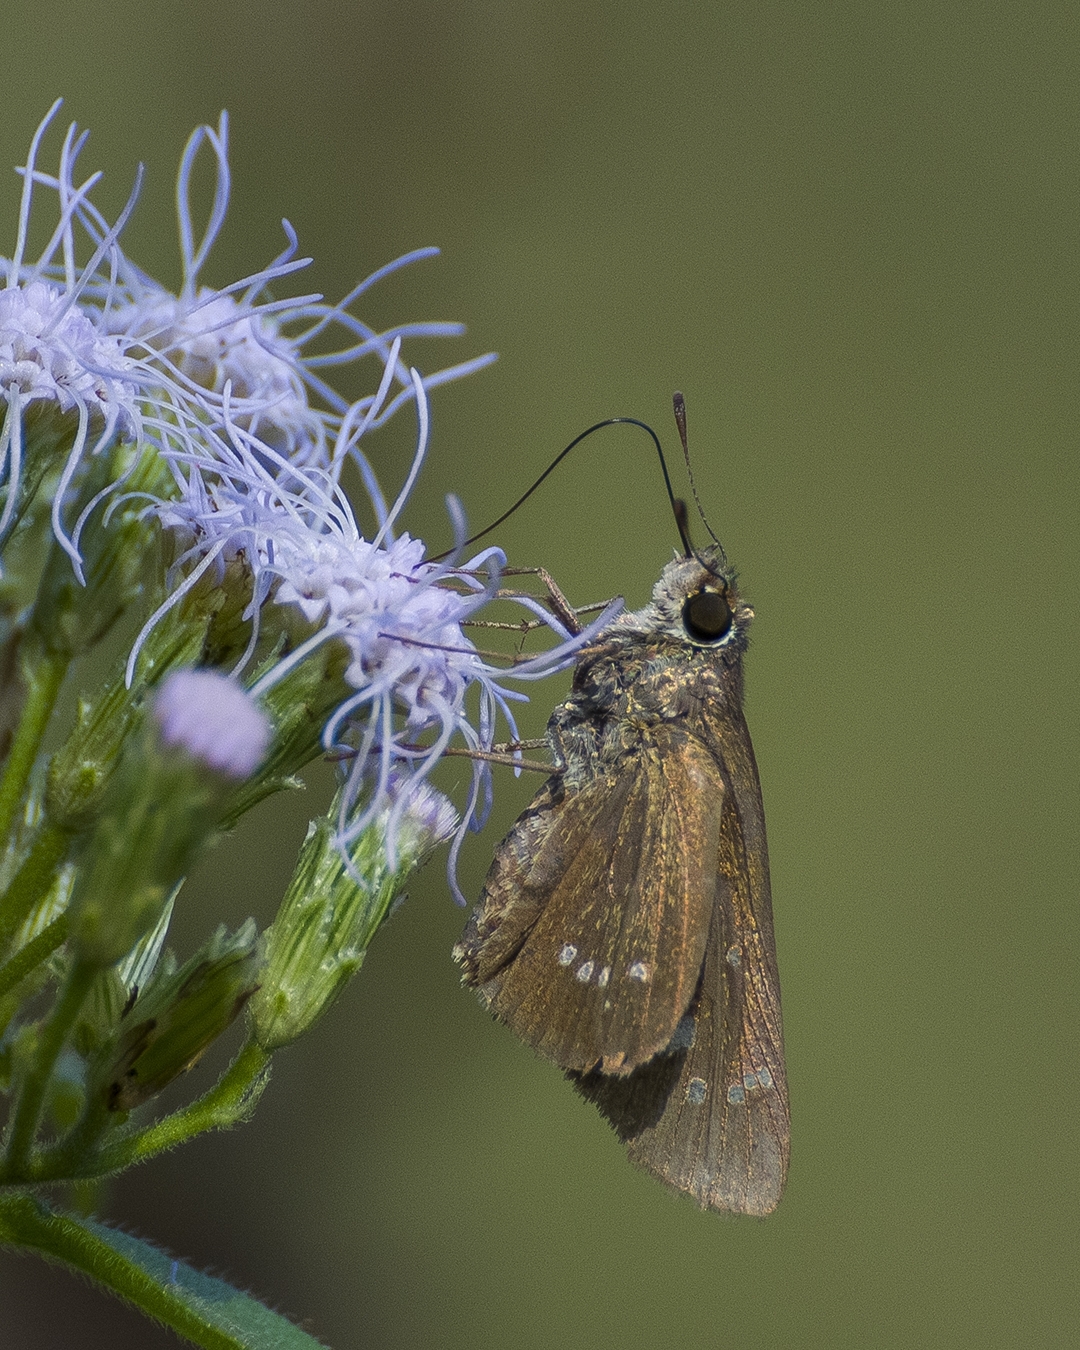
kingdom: Animalia
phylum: Arthropoda
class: Insecta
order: Lepidoptera
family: Hesperiidae
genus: Borbo
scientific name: Borbo cinnara
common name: Formosan swift
